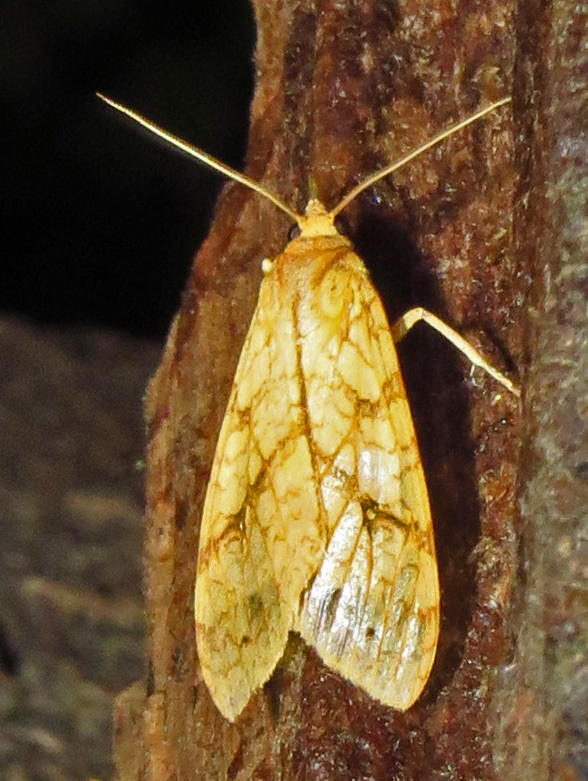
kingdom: Animalia
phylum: Arthropoda
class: Insecta
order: Lepidoptera
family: Erebidae
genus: Lophocampa
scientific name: Lophocampa annulosa
